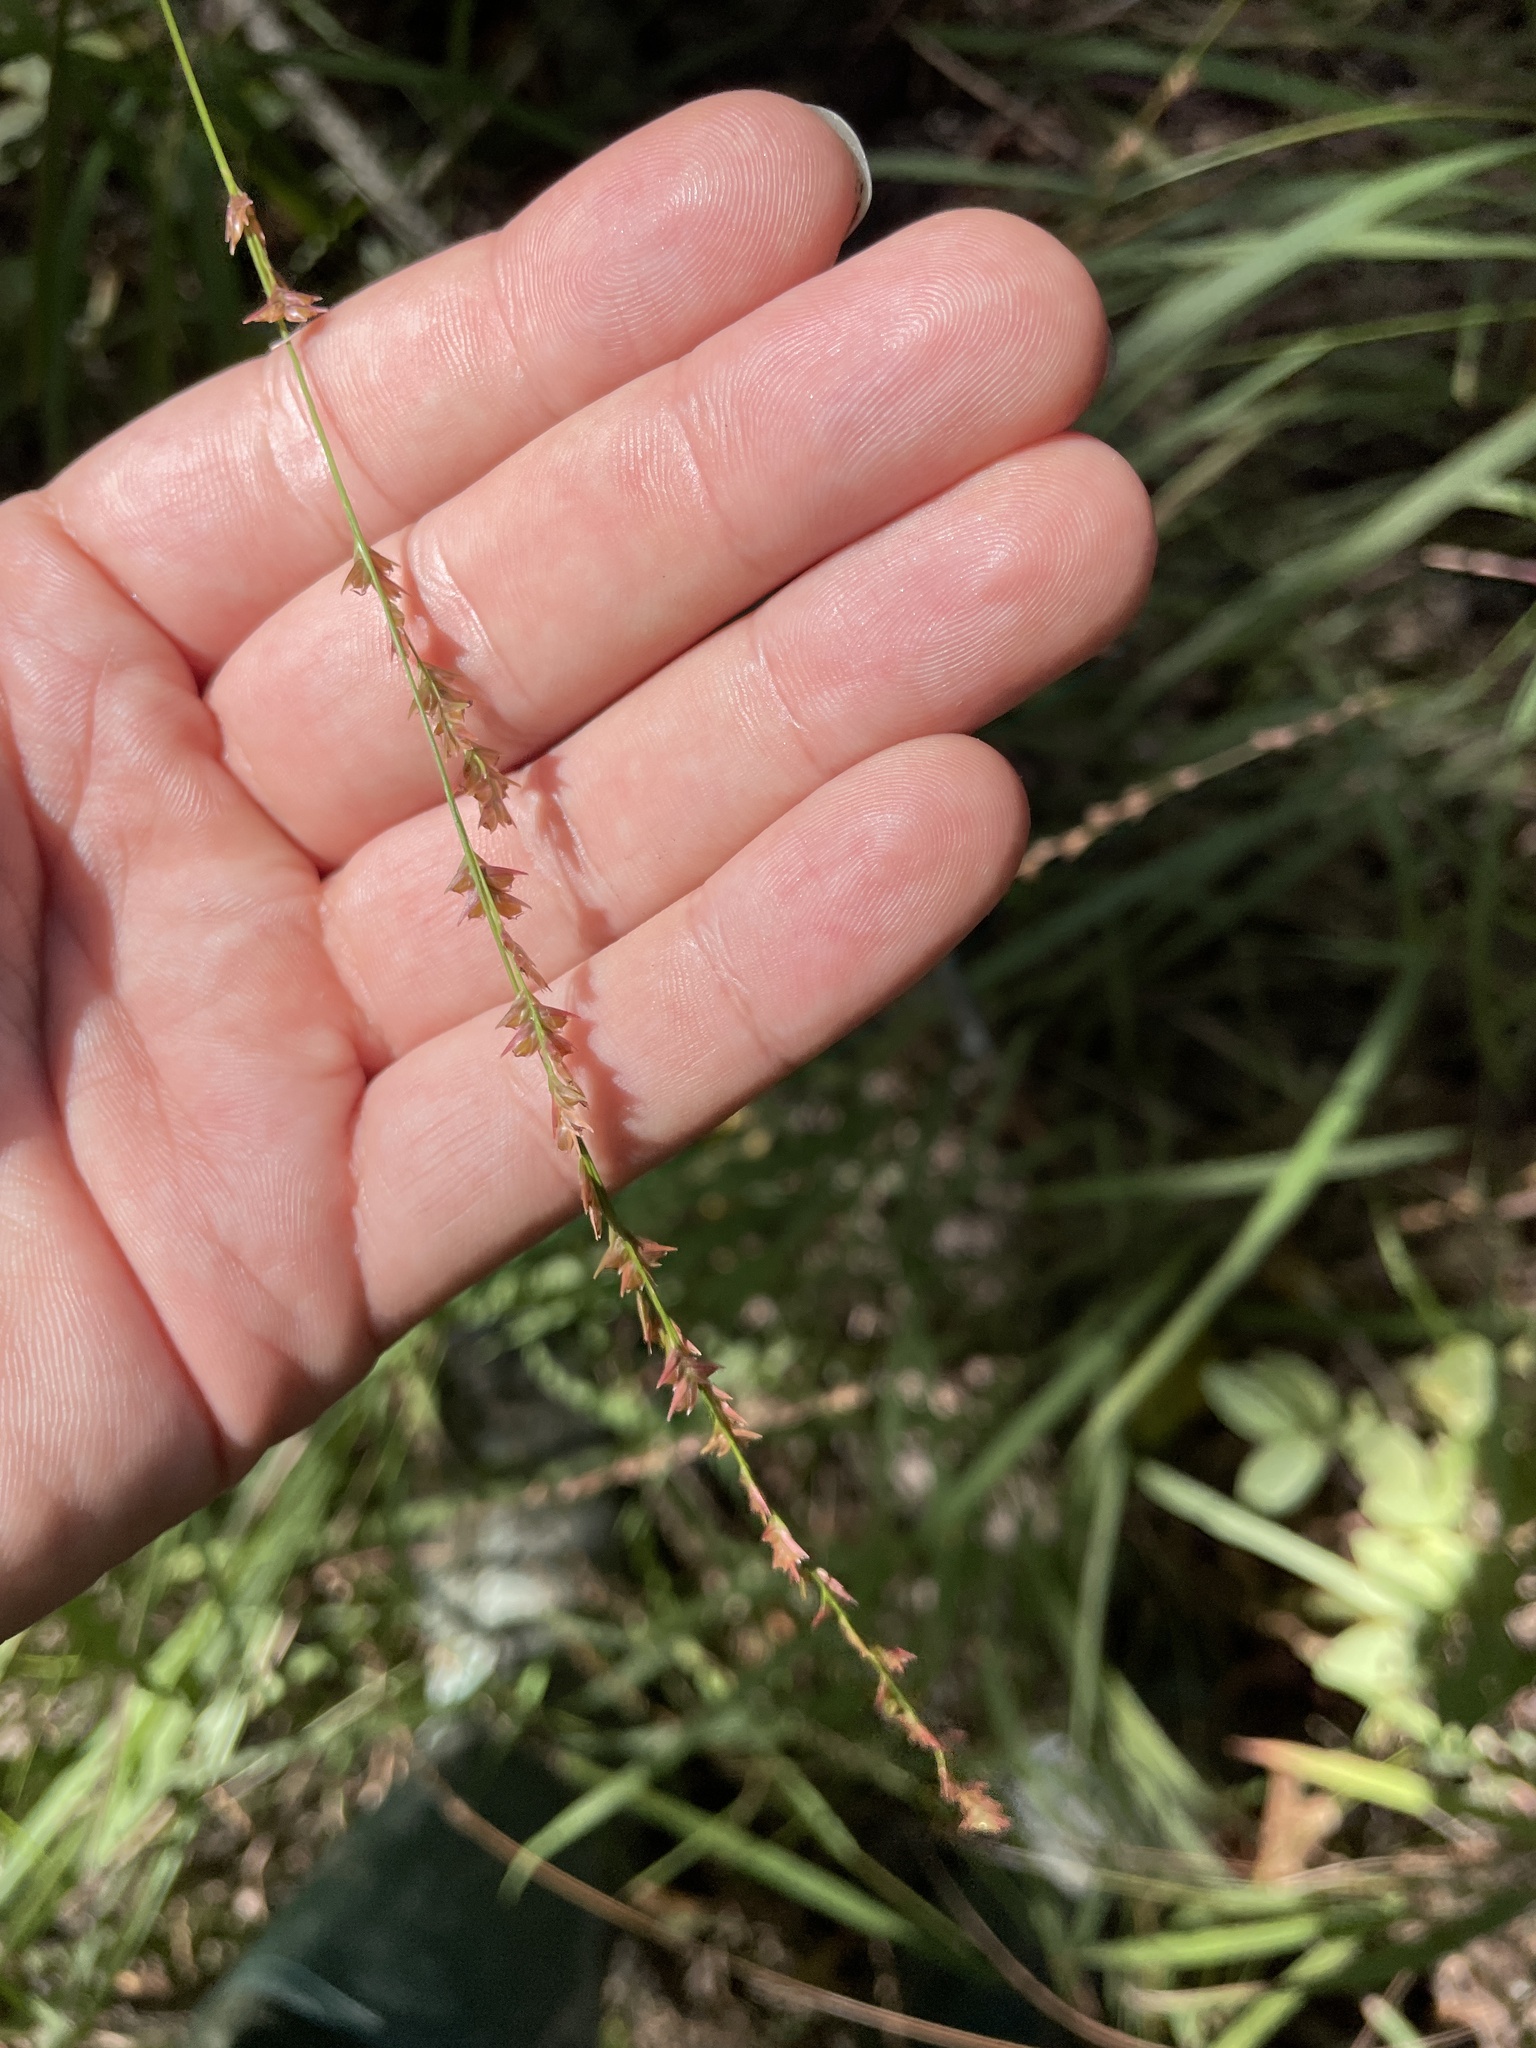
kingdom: Plantae
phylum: Tracheophyta
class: Liliopsida
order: Poales
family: Poaceae
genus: Chasmanthium
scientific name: Chasmanthium laxum
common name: Slender chasmanthium
